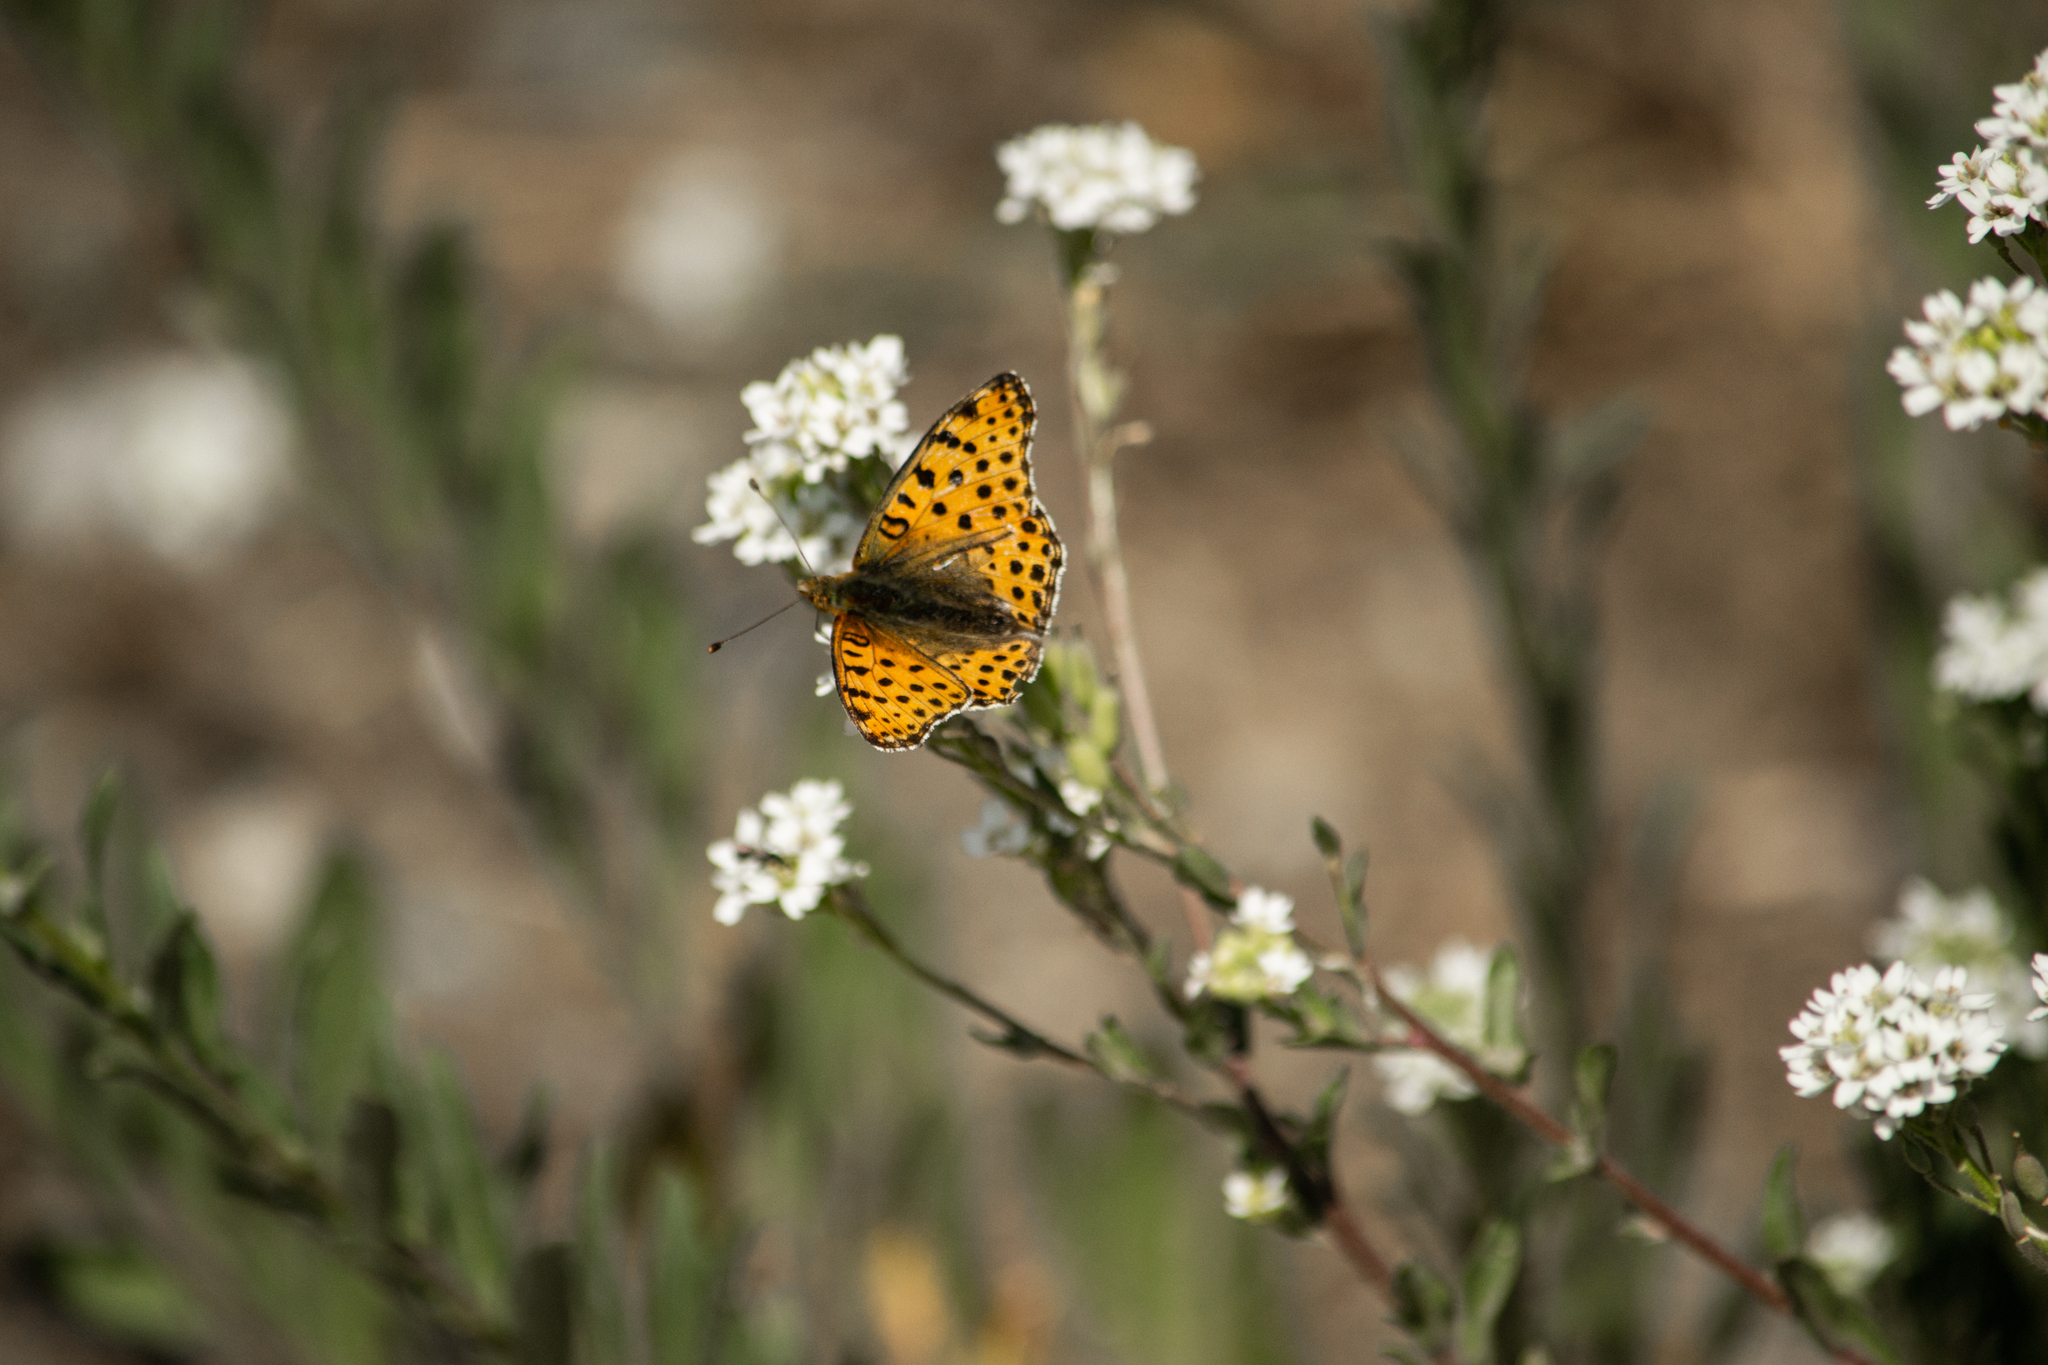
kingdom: Animalia
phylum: Arthropoda
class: Insecta
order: Lepidoptera
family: Nymphalidae
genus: Issoria
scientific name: Issoria lathonia
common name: Queen of spain fritillary
